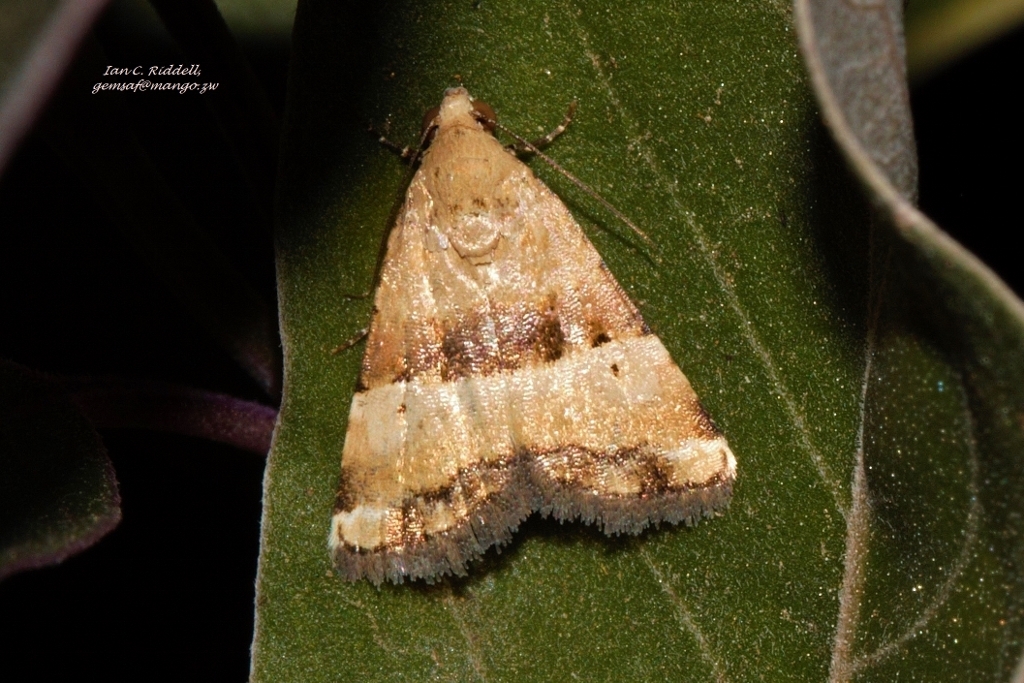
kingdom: Animalia
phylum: Arthropoda
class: Insecta
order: Lepidoptera
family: Noctuidae
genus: Pseudozarba
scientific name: Pseudozarba opella
